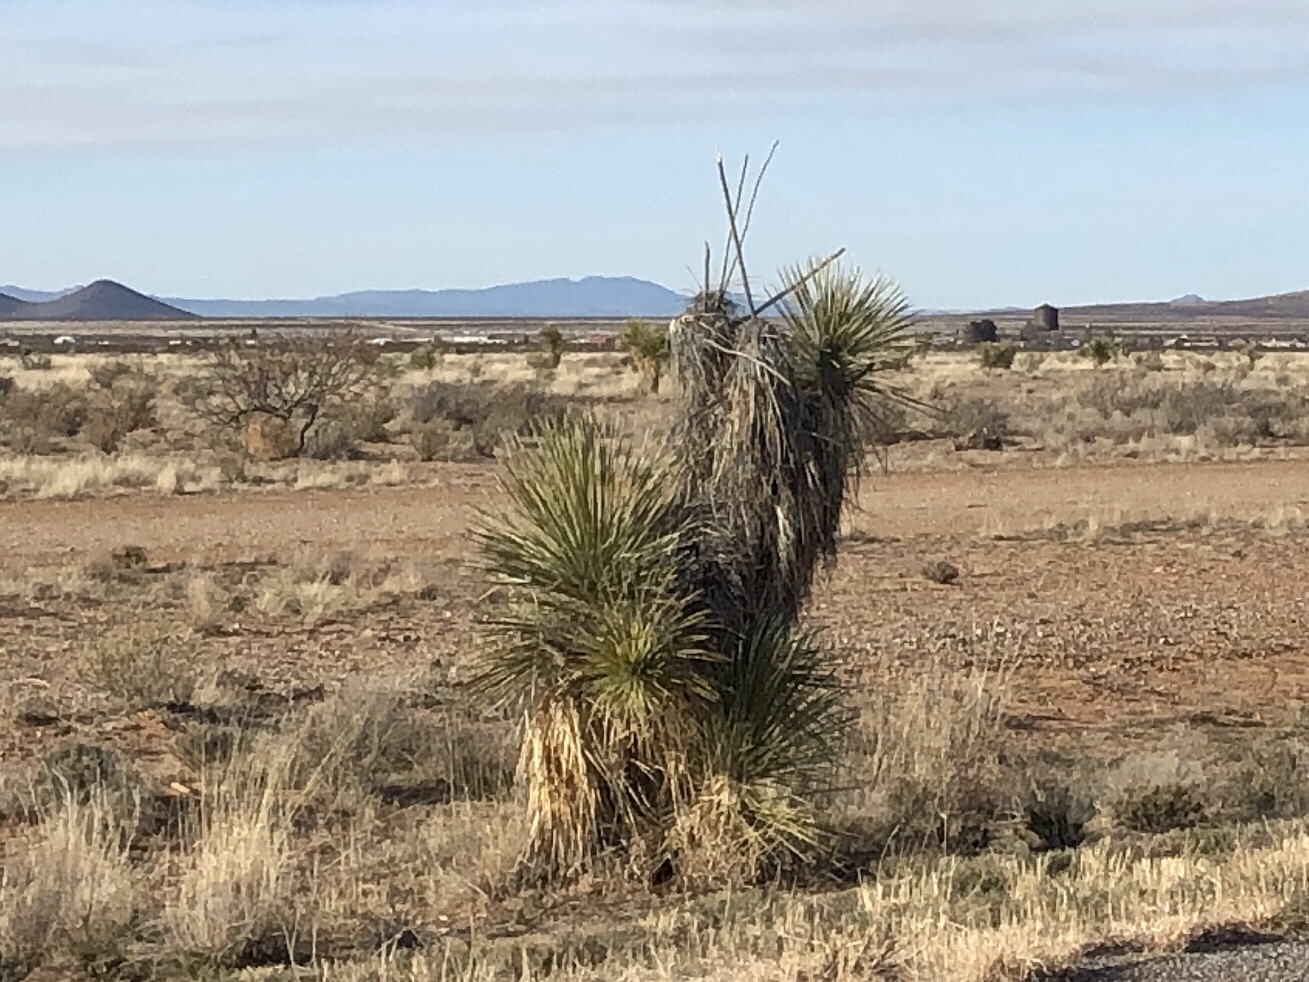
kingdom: Plantae
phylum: Tracheophyta
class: Liliopsida
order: Asparagales
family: Asparagaceae
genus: Yucca
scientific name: Yucca elata
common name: Palmella
